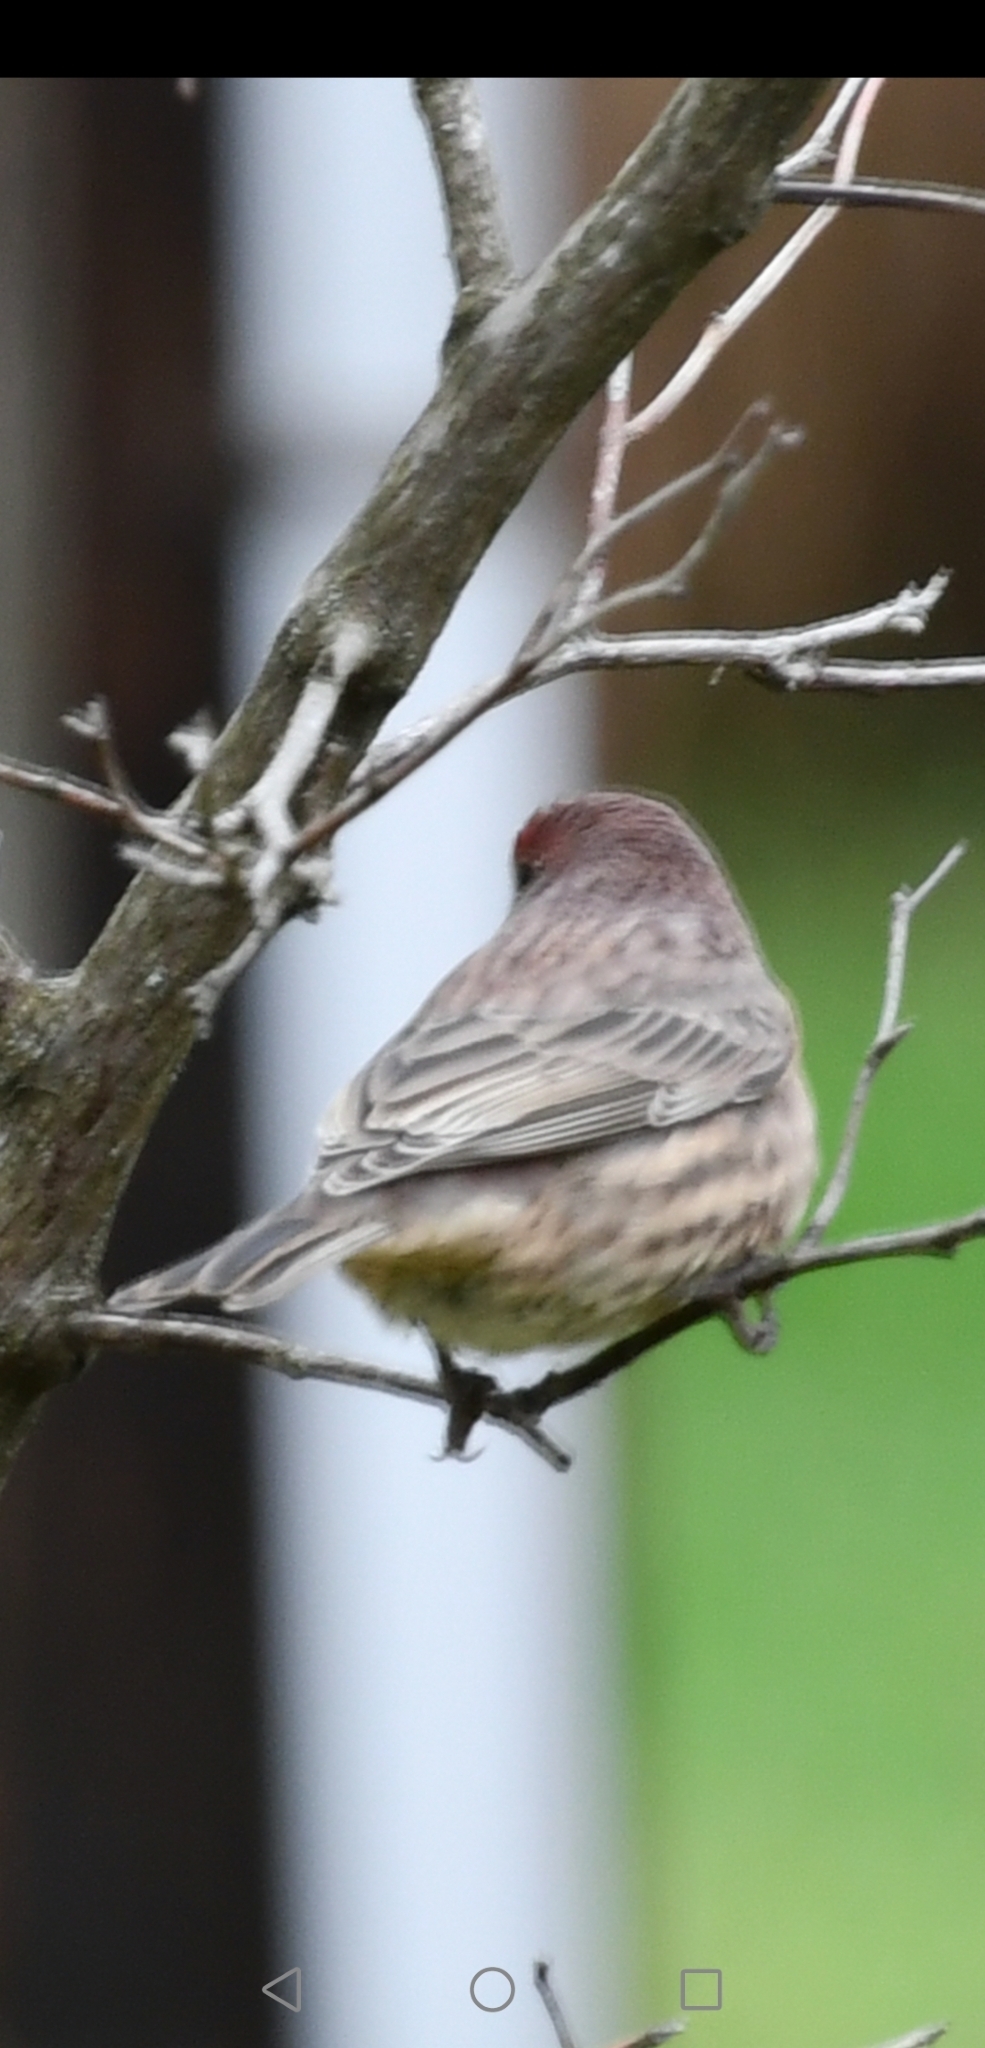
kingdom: Animalia
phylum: Chordata
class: Aves
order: Passeriformes
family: Fringillidae
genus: Haemorhous
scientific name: Haemorhous mexicanus
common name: House finch
